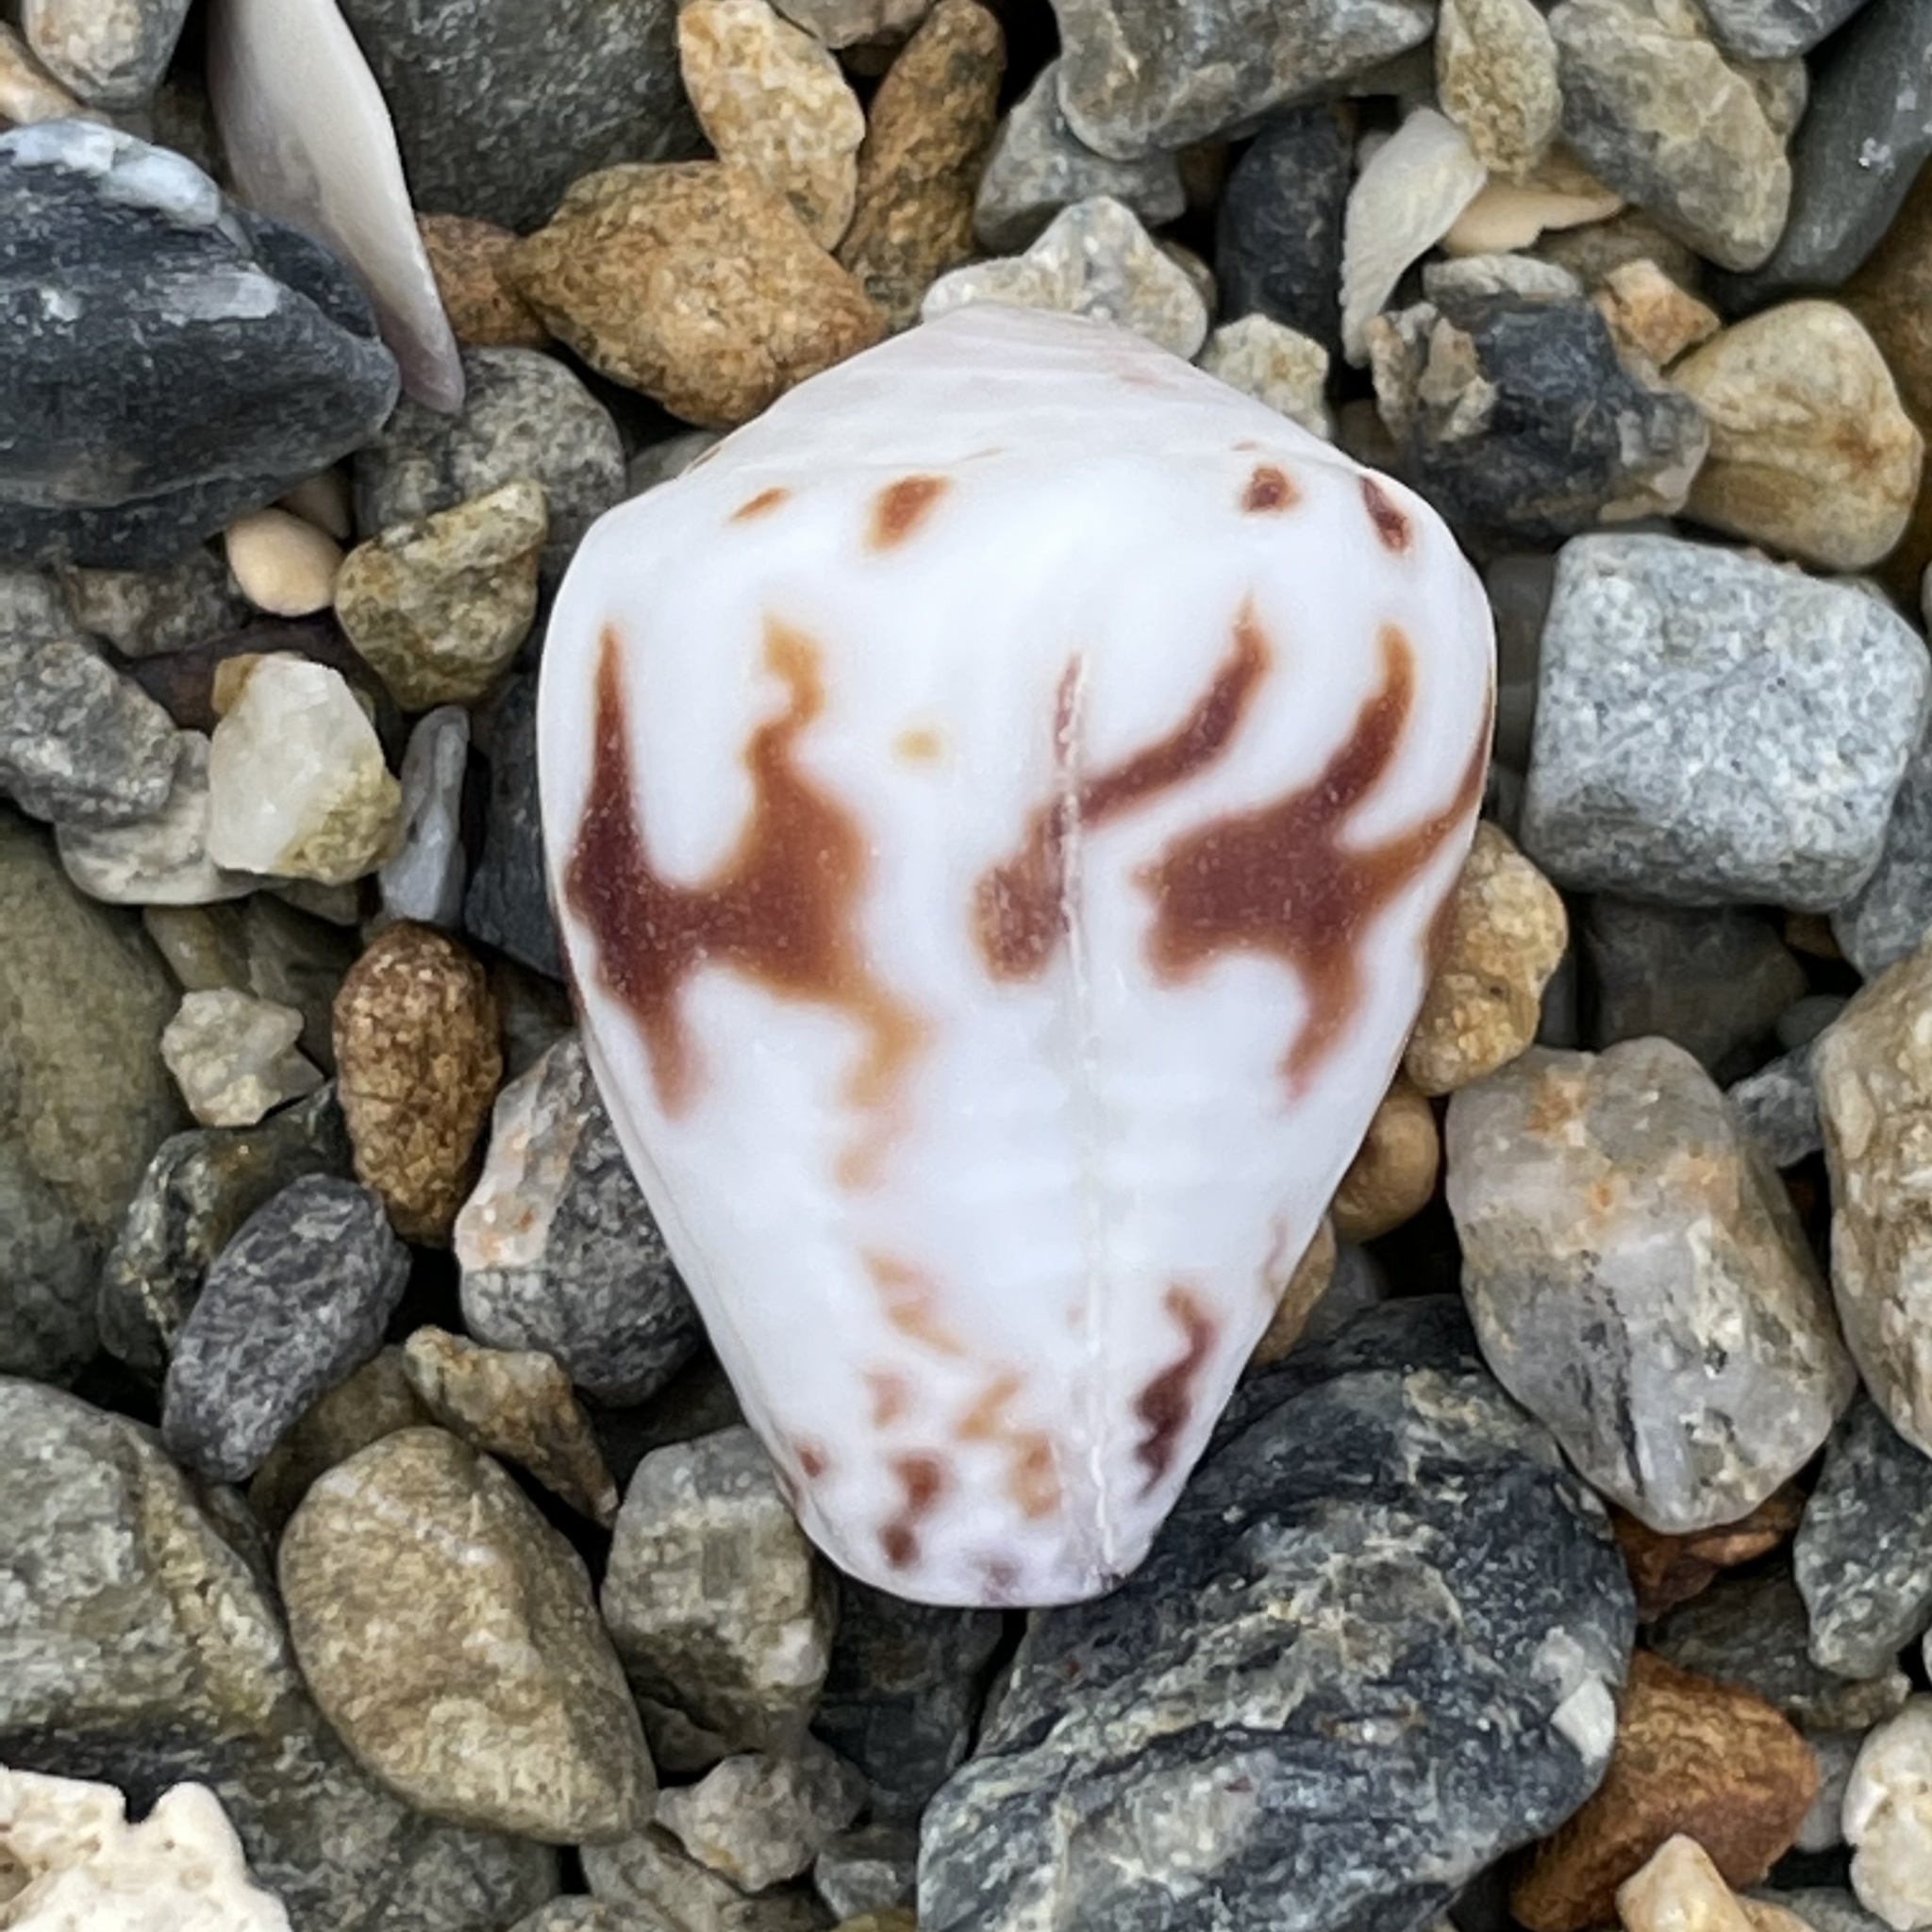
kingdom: Animalia
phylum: Mollusca
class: Gastropoda
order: Neogastropoda
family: Conidae
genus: Conus
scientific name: Conus sponsalis
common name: Sponsal cone
